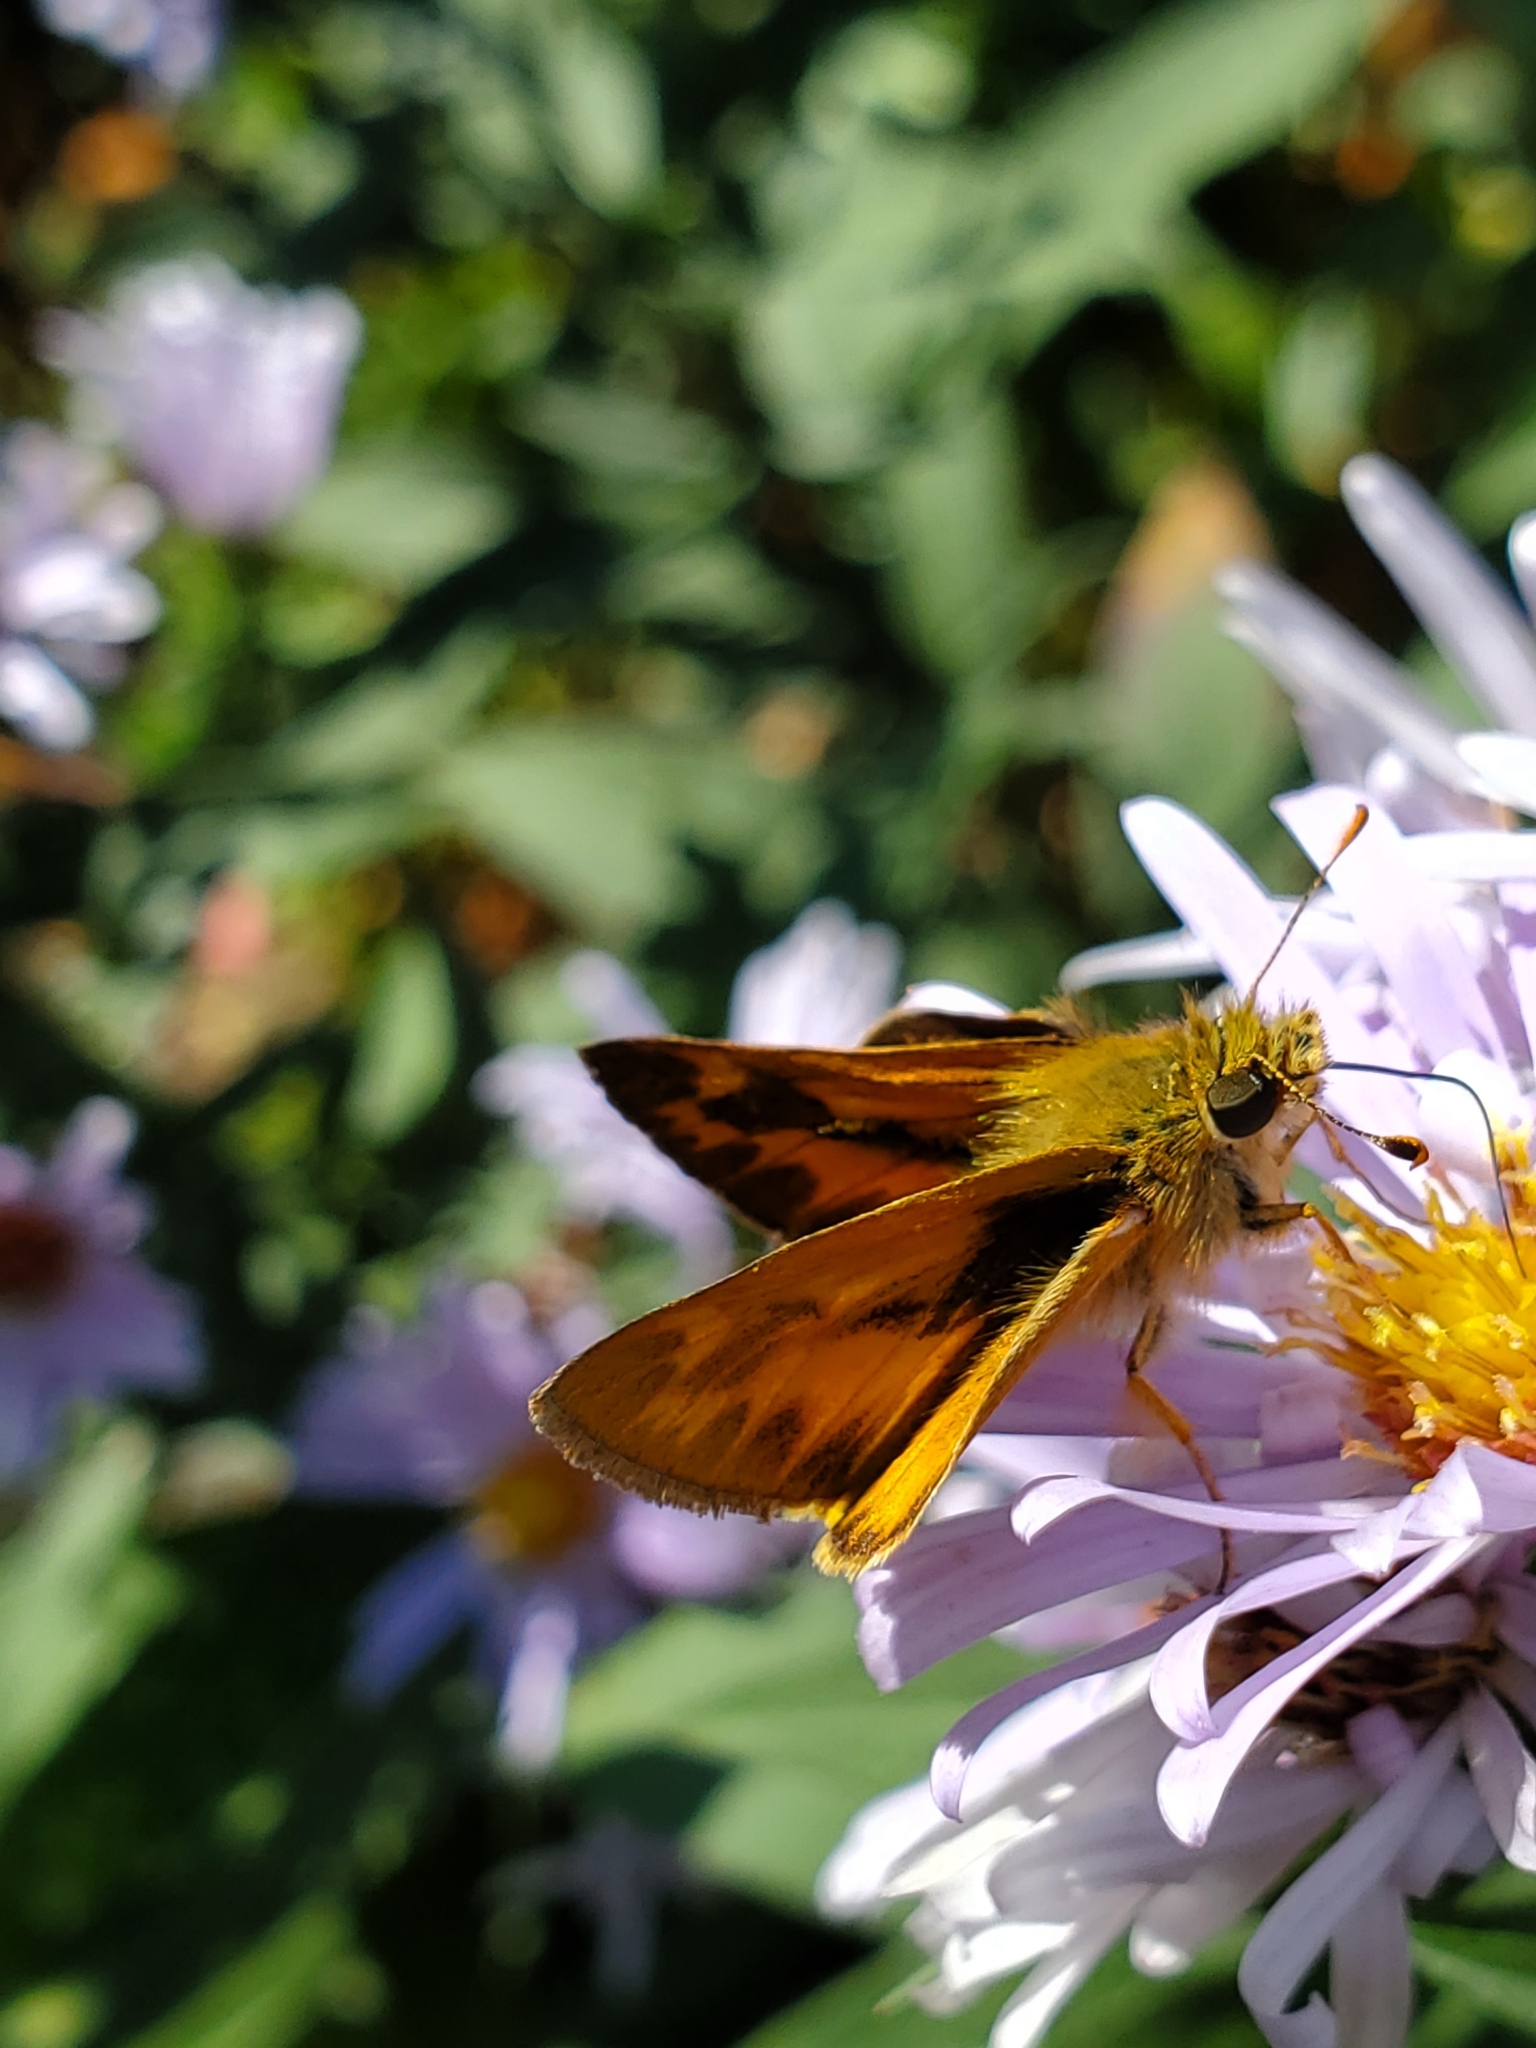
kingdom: Animalia
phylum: Arthropoda
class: Insecta
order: Lepidoptera
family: Hesperiidae
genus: Ochlodes
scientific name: Ochlodes sylvanoides
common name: Woodland skipper
